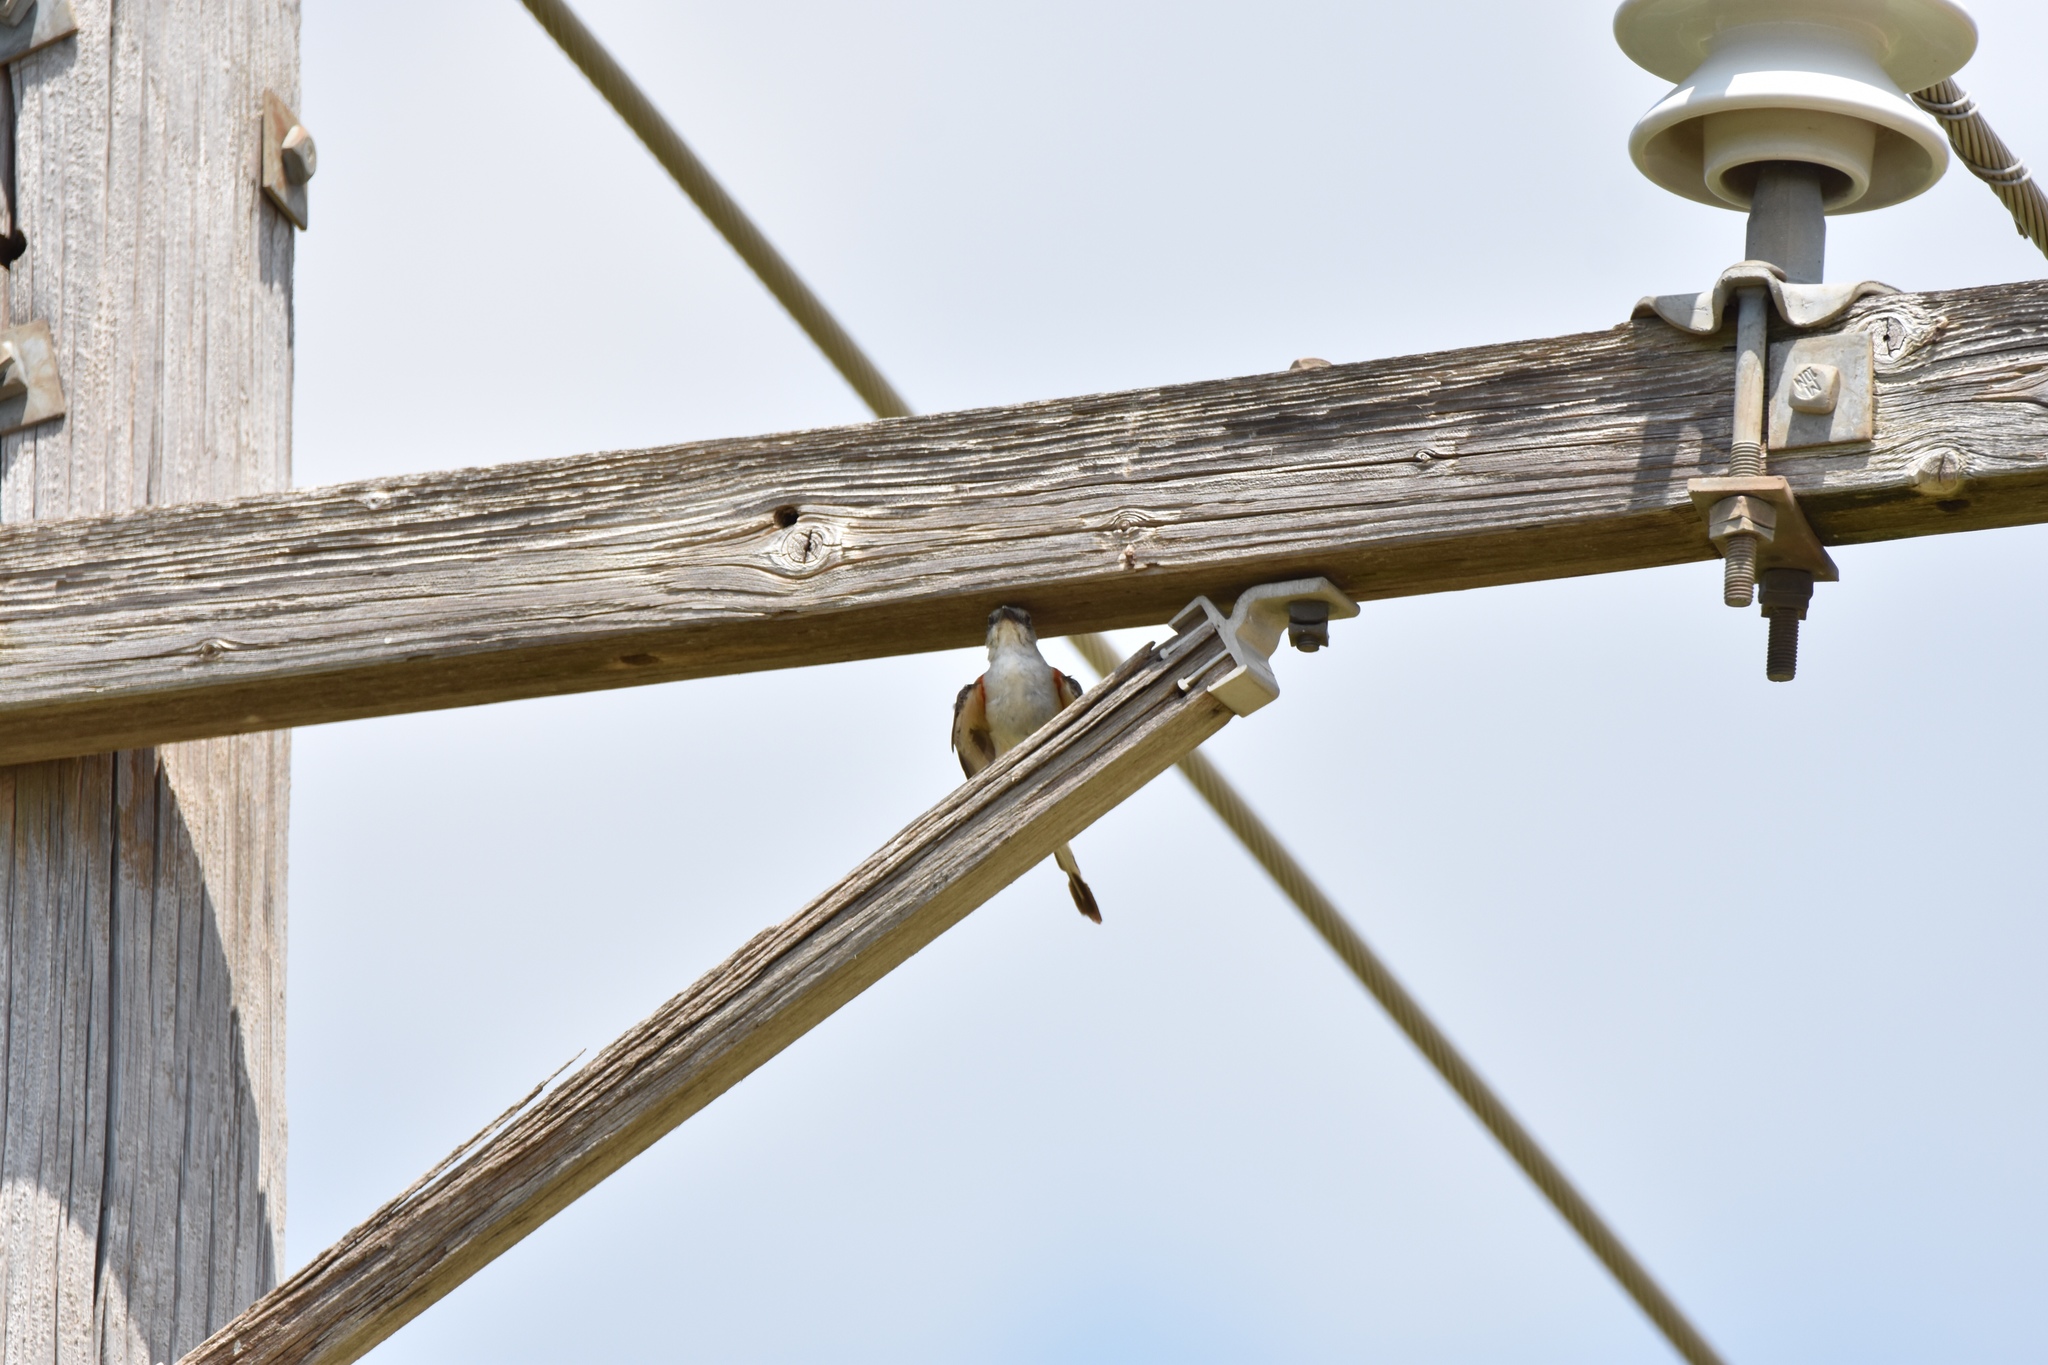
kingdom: Animalia
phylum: Chordata
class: Aves
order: Passeriformes
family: Tyrannidae
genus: Tyrannus
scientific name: Tyrannus forficatus
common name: Scissor-tailed flycatcher
